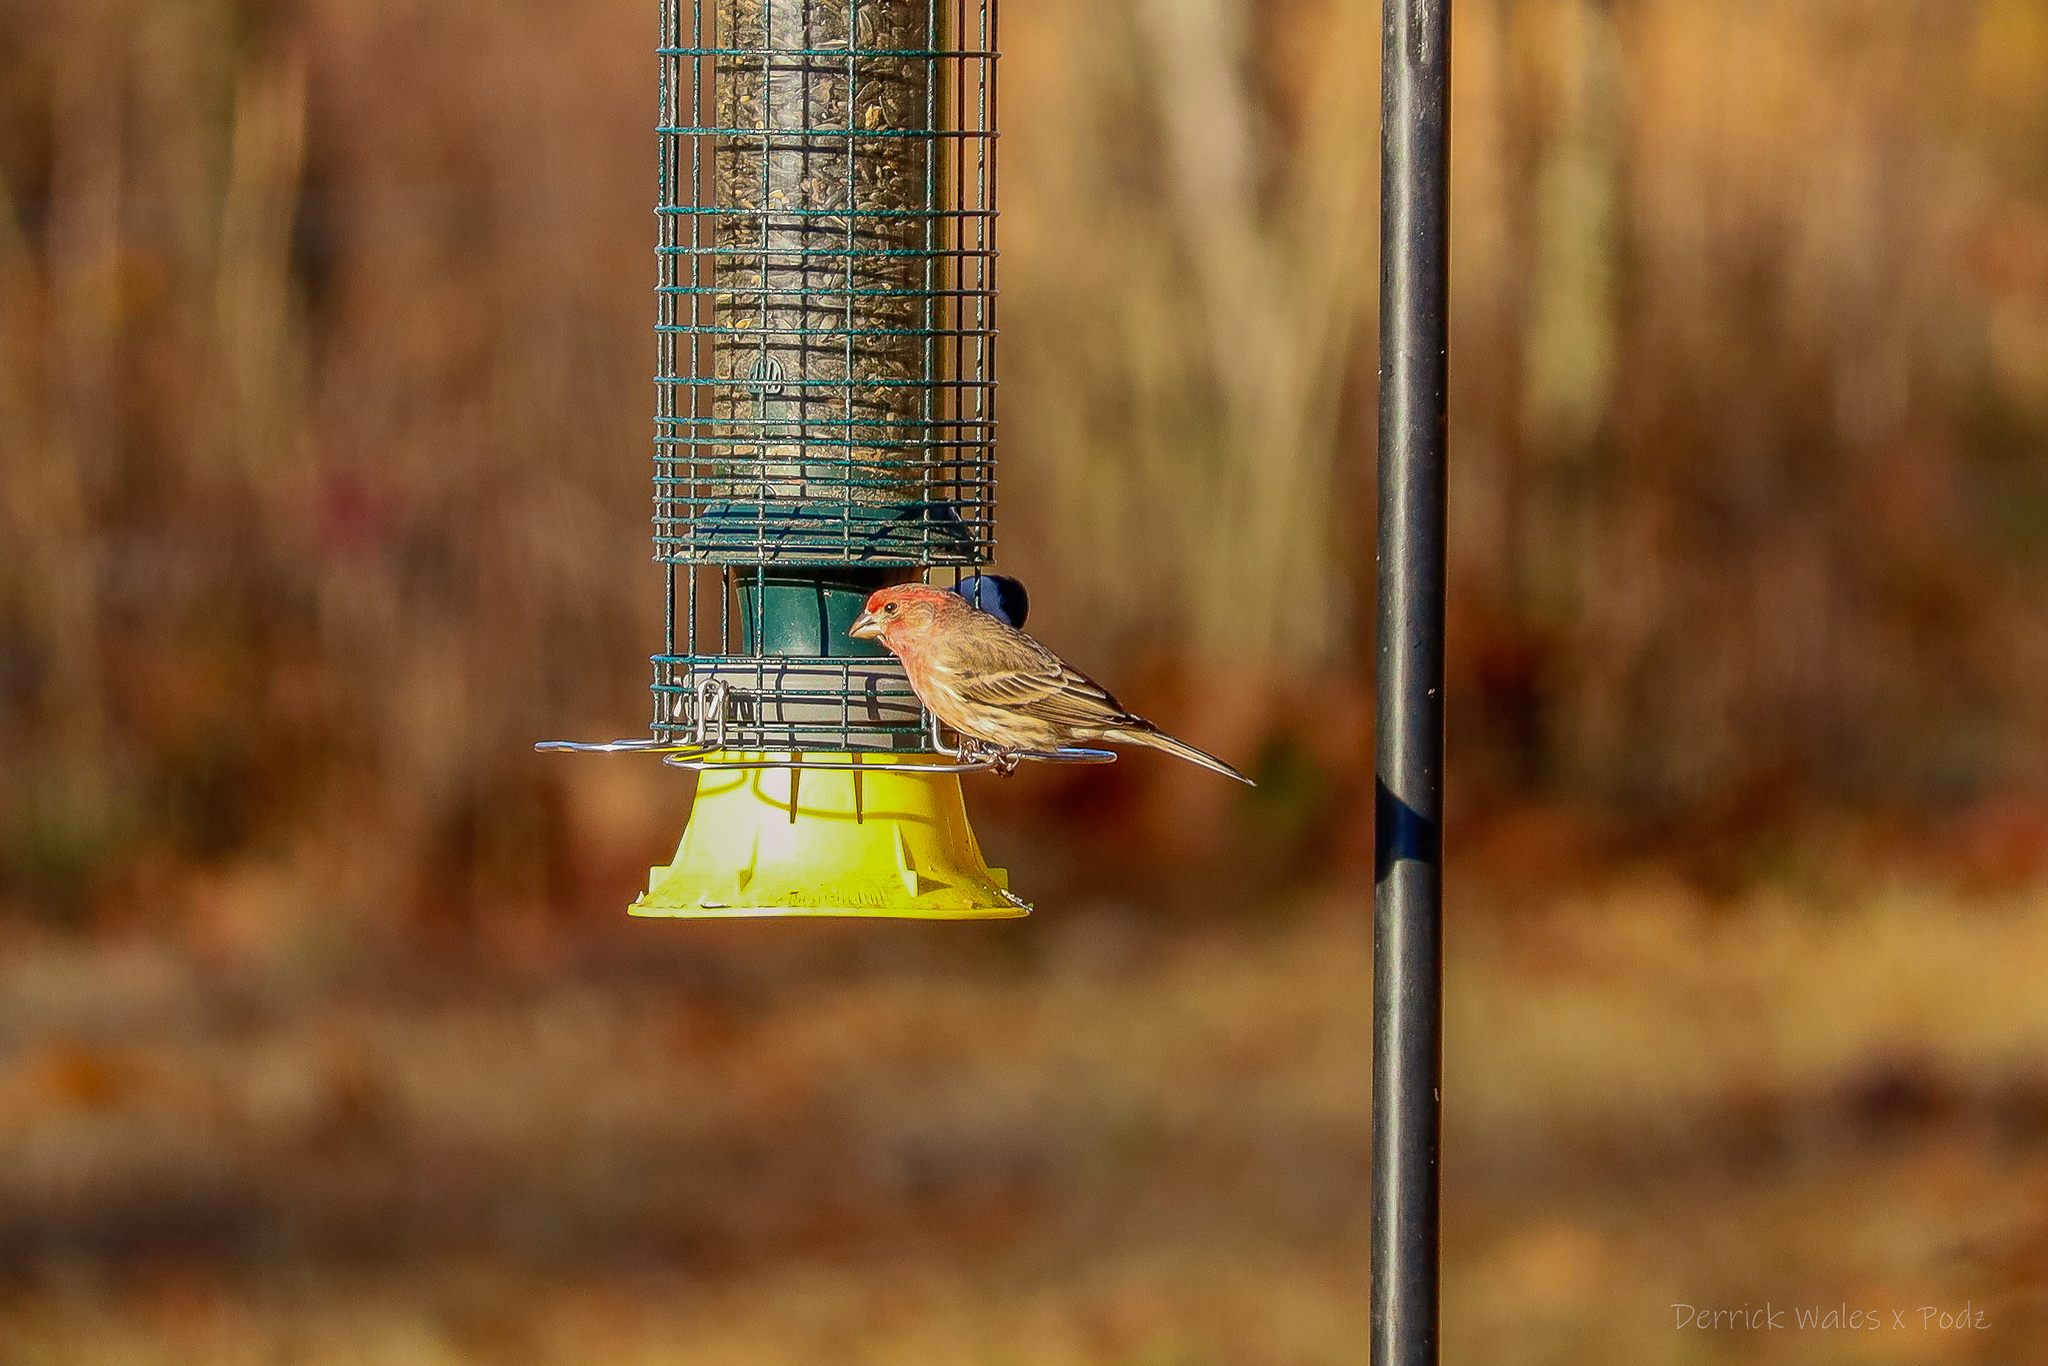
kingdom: Animalia
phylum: Chordata
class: Aves
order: Passeriformes
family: Fringillidae
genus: Haemorhous
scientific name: Haemorhous mexicanus
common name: House finch
